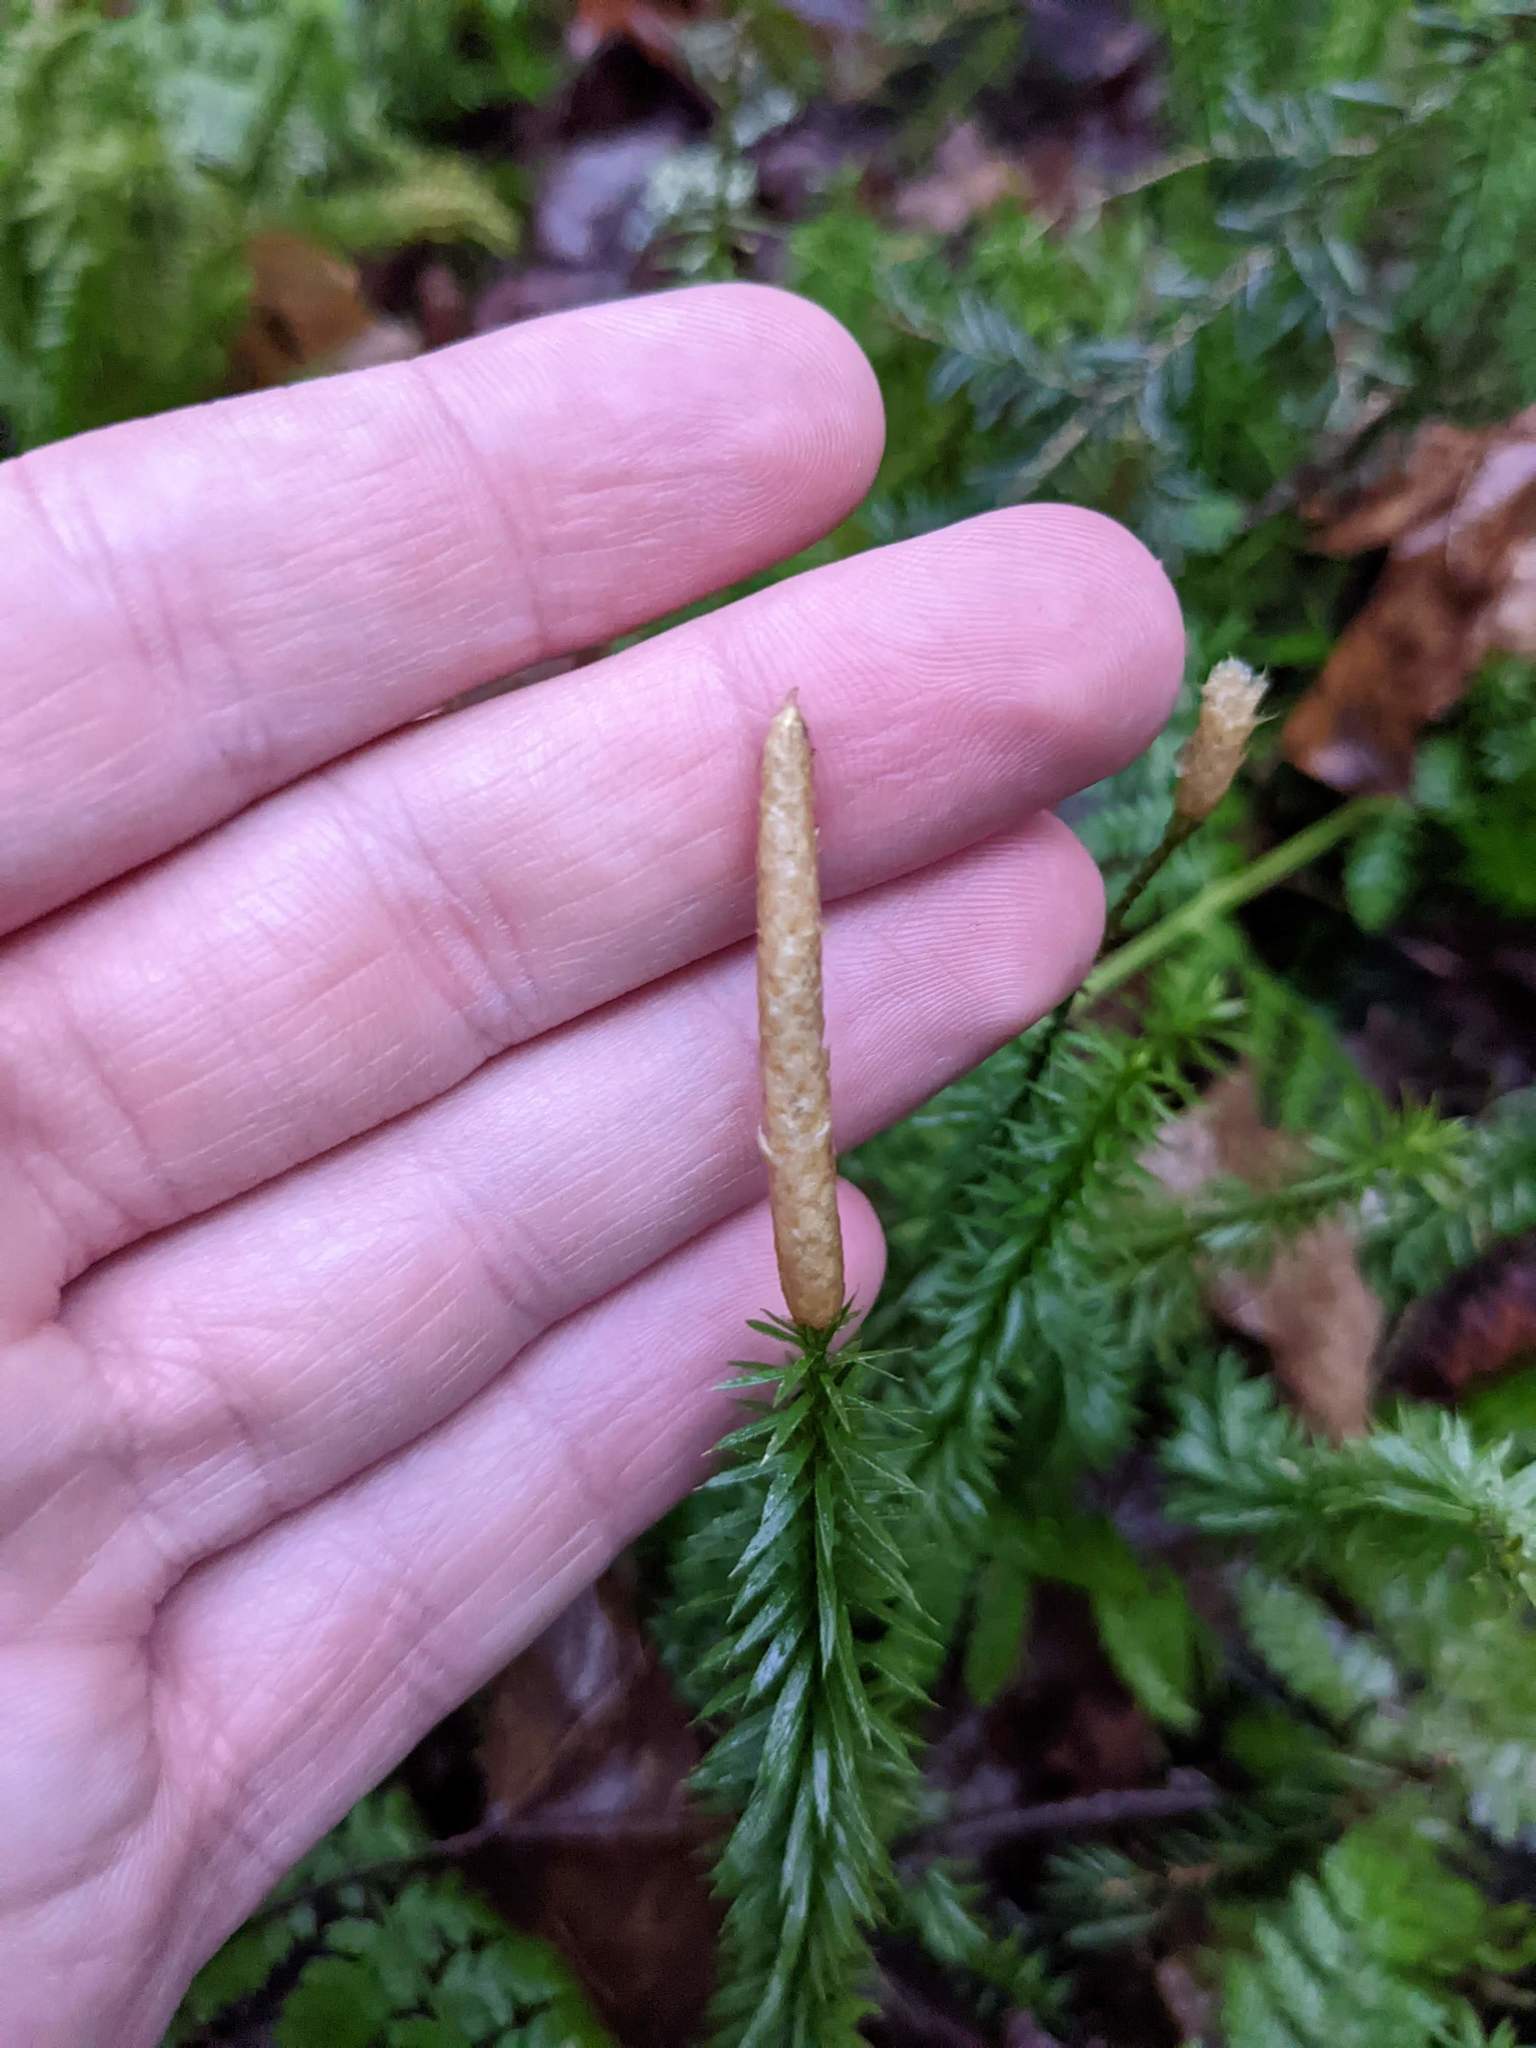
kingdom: Plantae
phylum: Tracheophyta
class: Lycopodiopsida
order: Lycopodiales
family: Lycopodiaceae
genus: Spinulum
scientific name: Spinulum annotinum
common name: Interrupted club-moss
